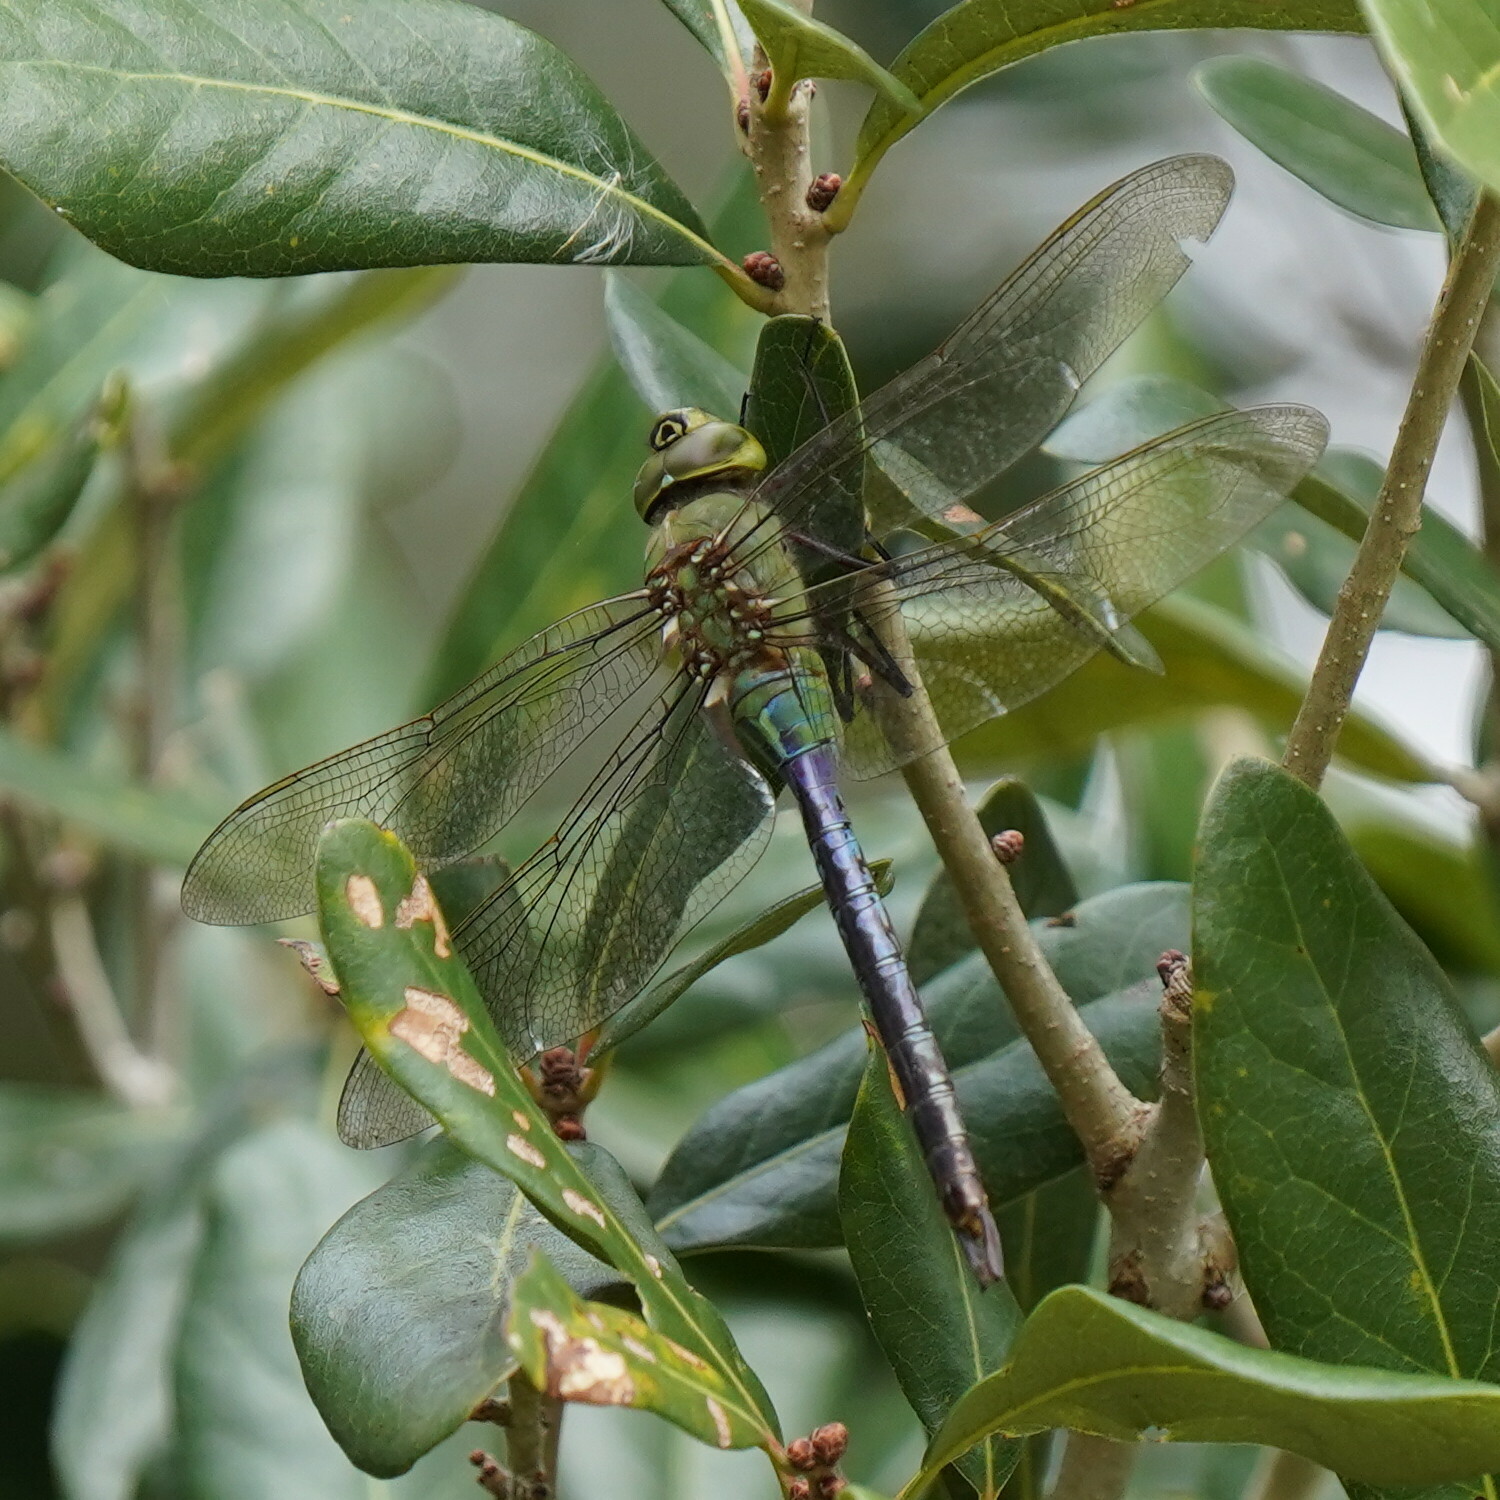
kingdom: Animalia
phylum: Arthropoda
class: Insecta
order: Odonata
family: Aeshnidae
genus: Anax
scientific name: Anax junius
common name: Common green darner
